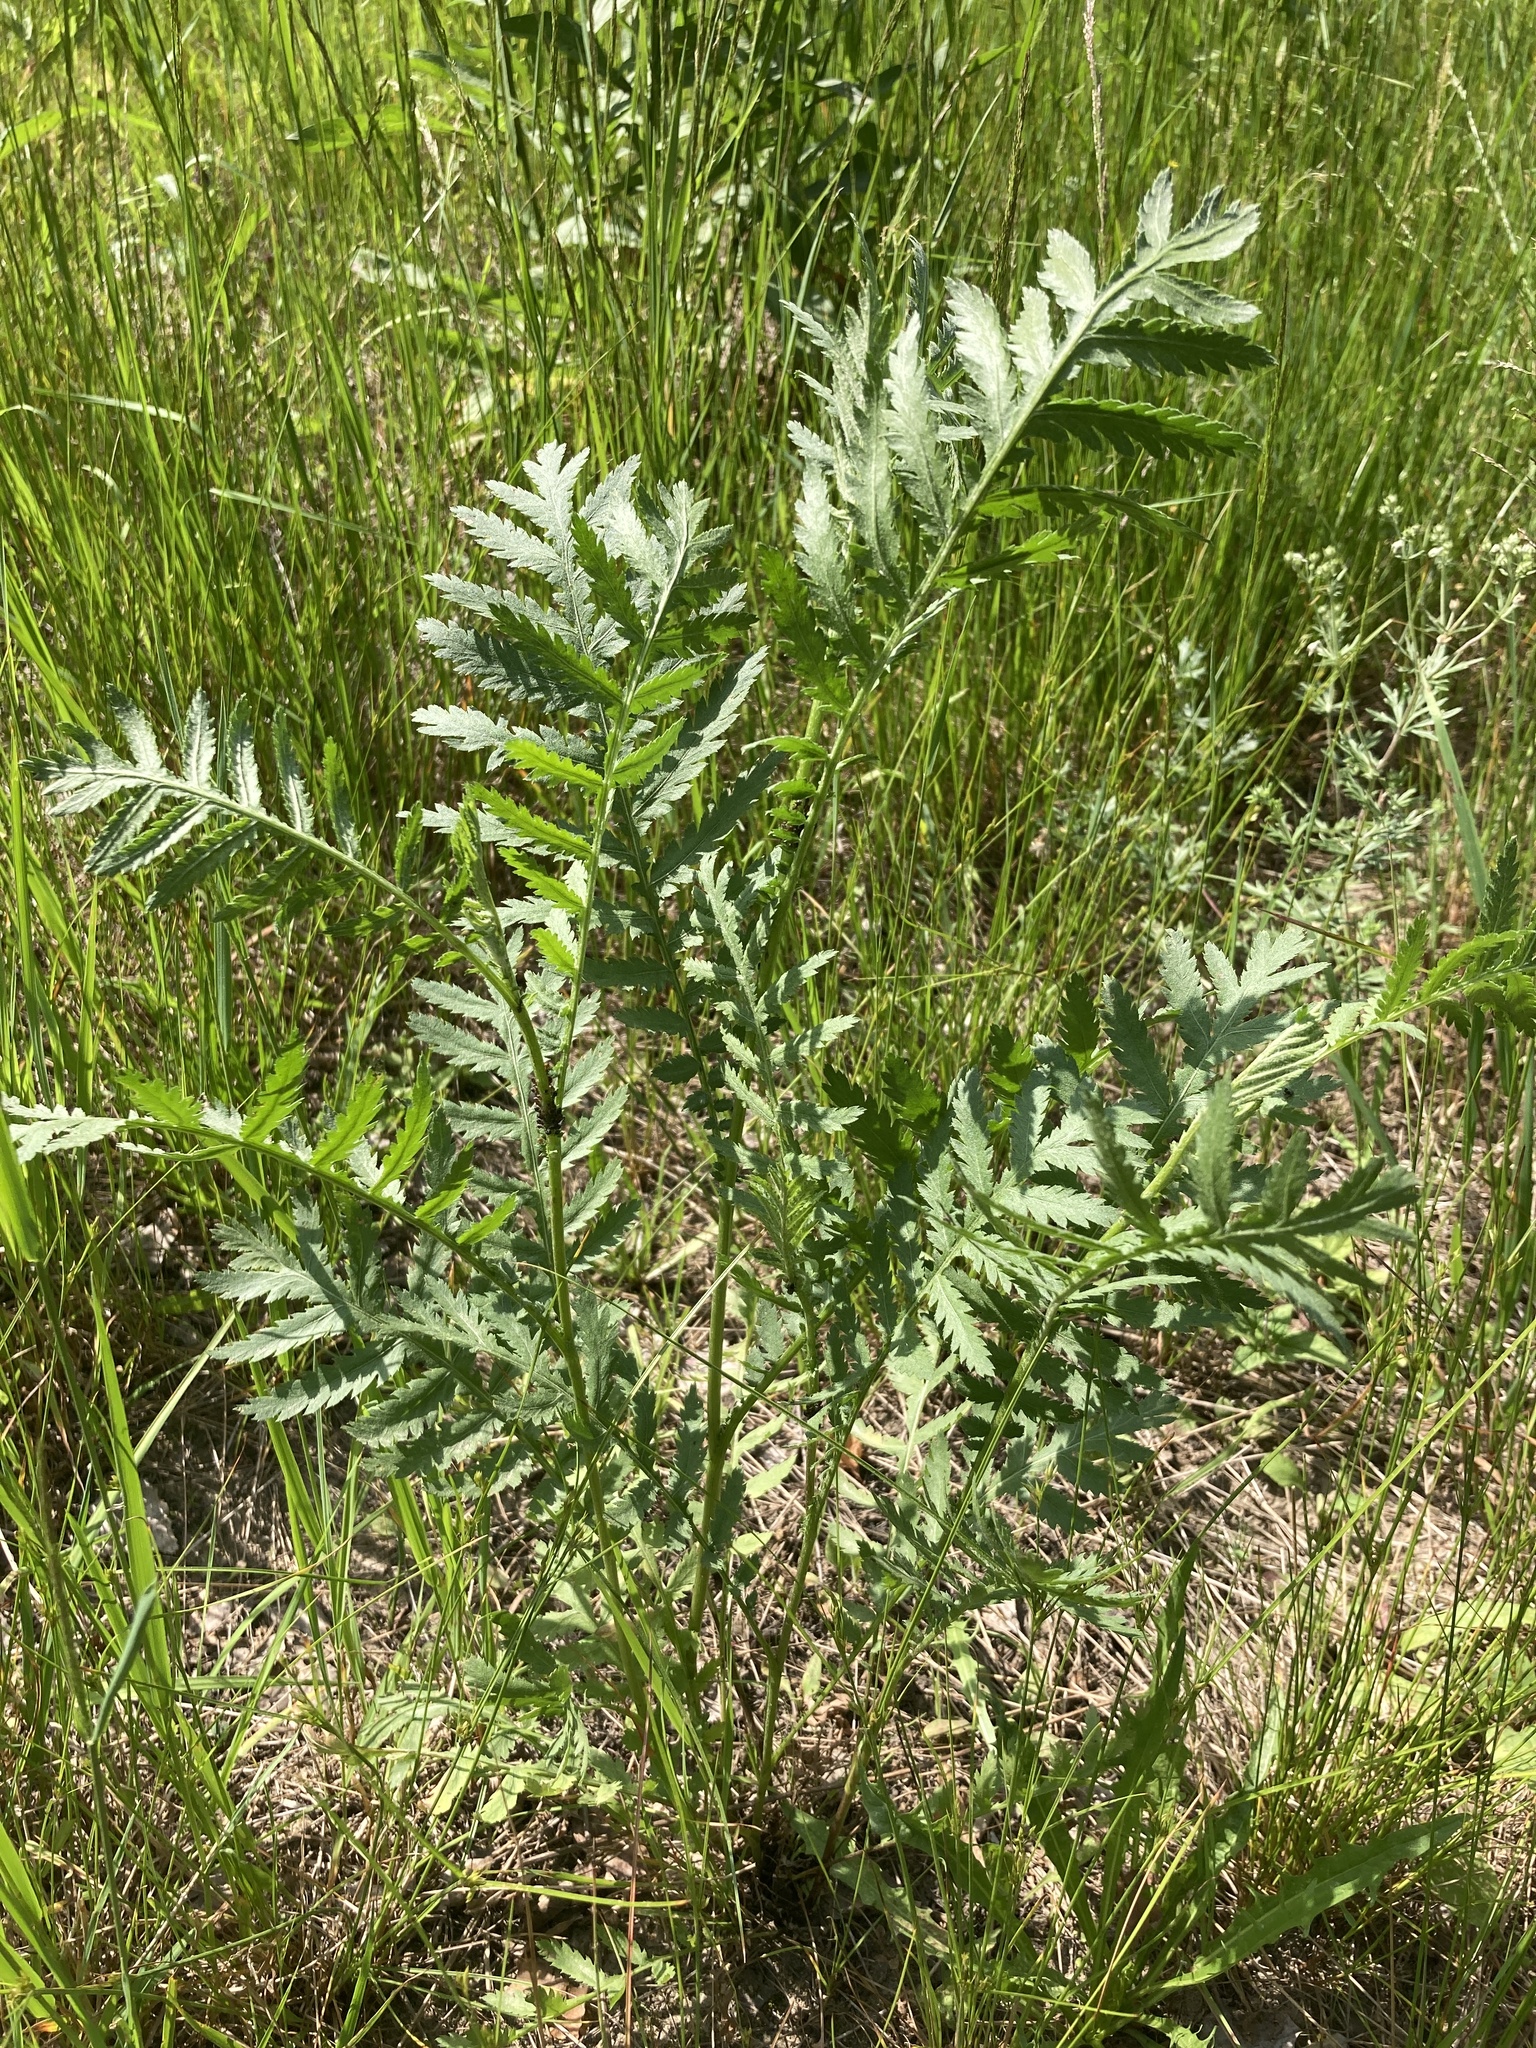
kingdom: Plantae
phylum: Tracheophyta
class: Magnoliopsida
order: Asterales
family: Asteraceae
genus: Tanacetum
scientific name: Tanacetum vulgare
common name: Common tansy
